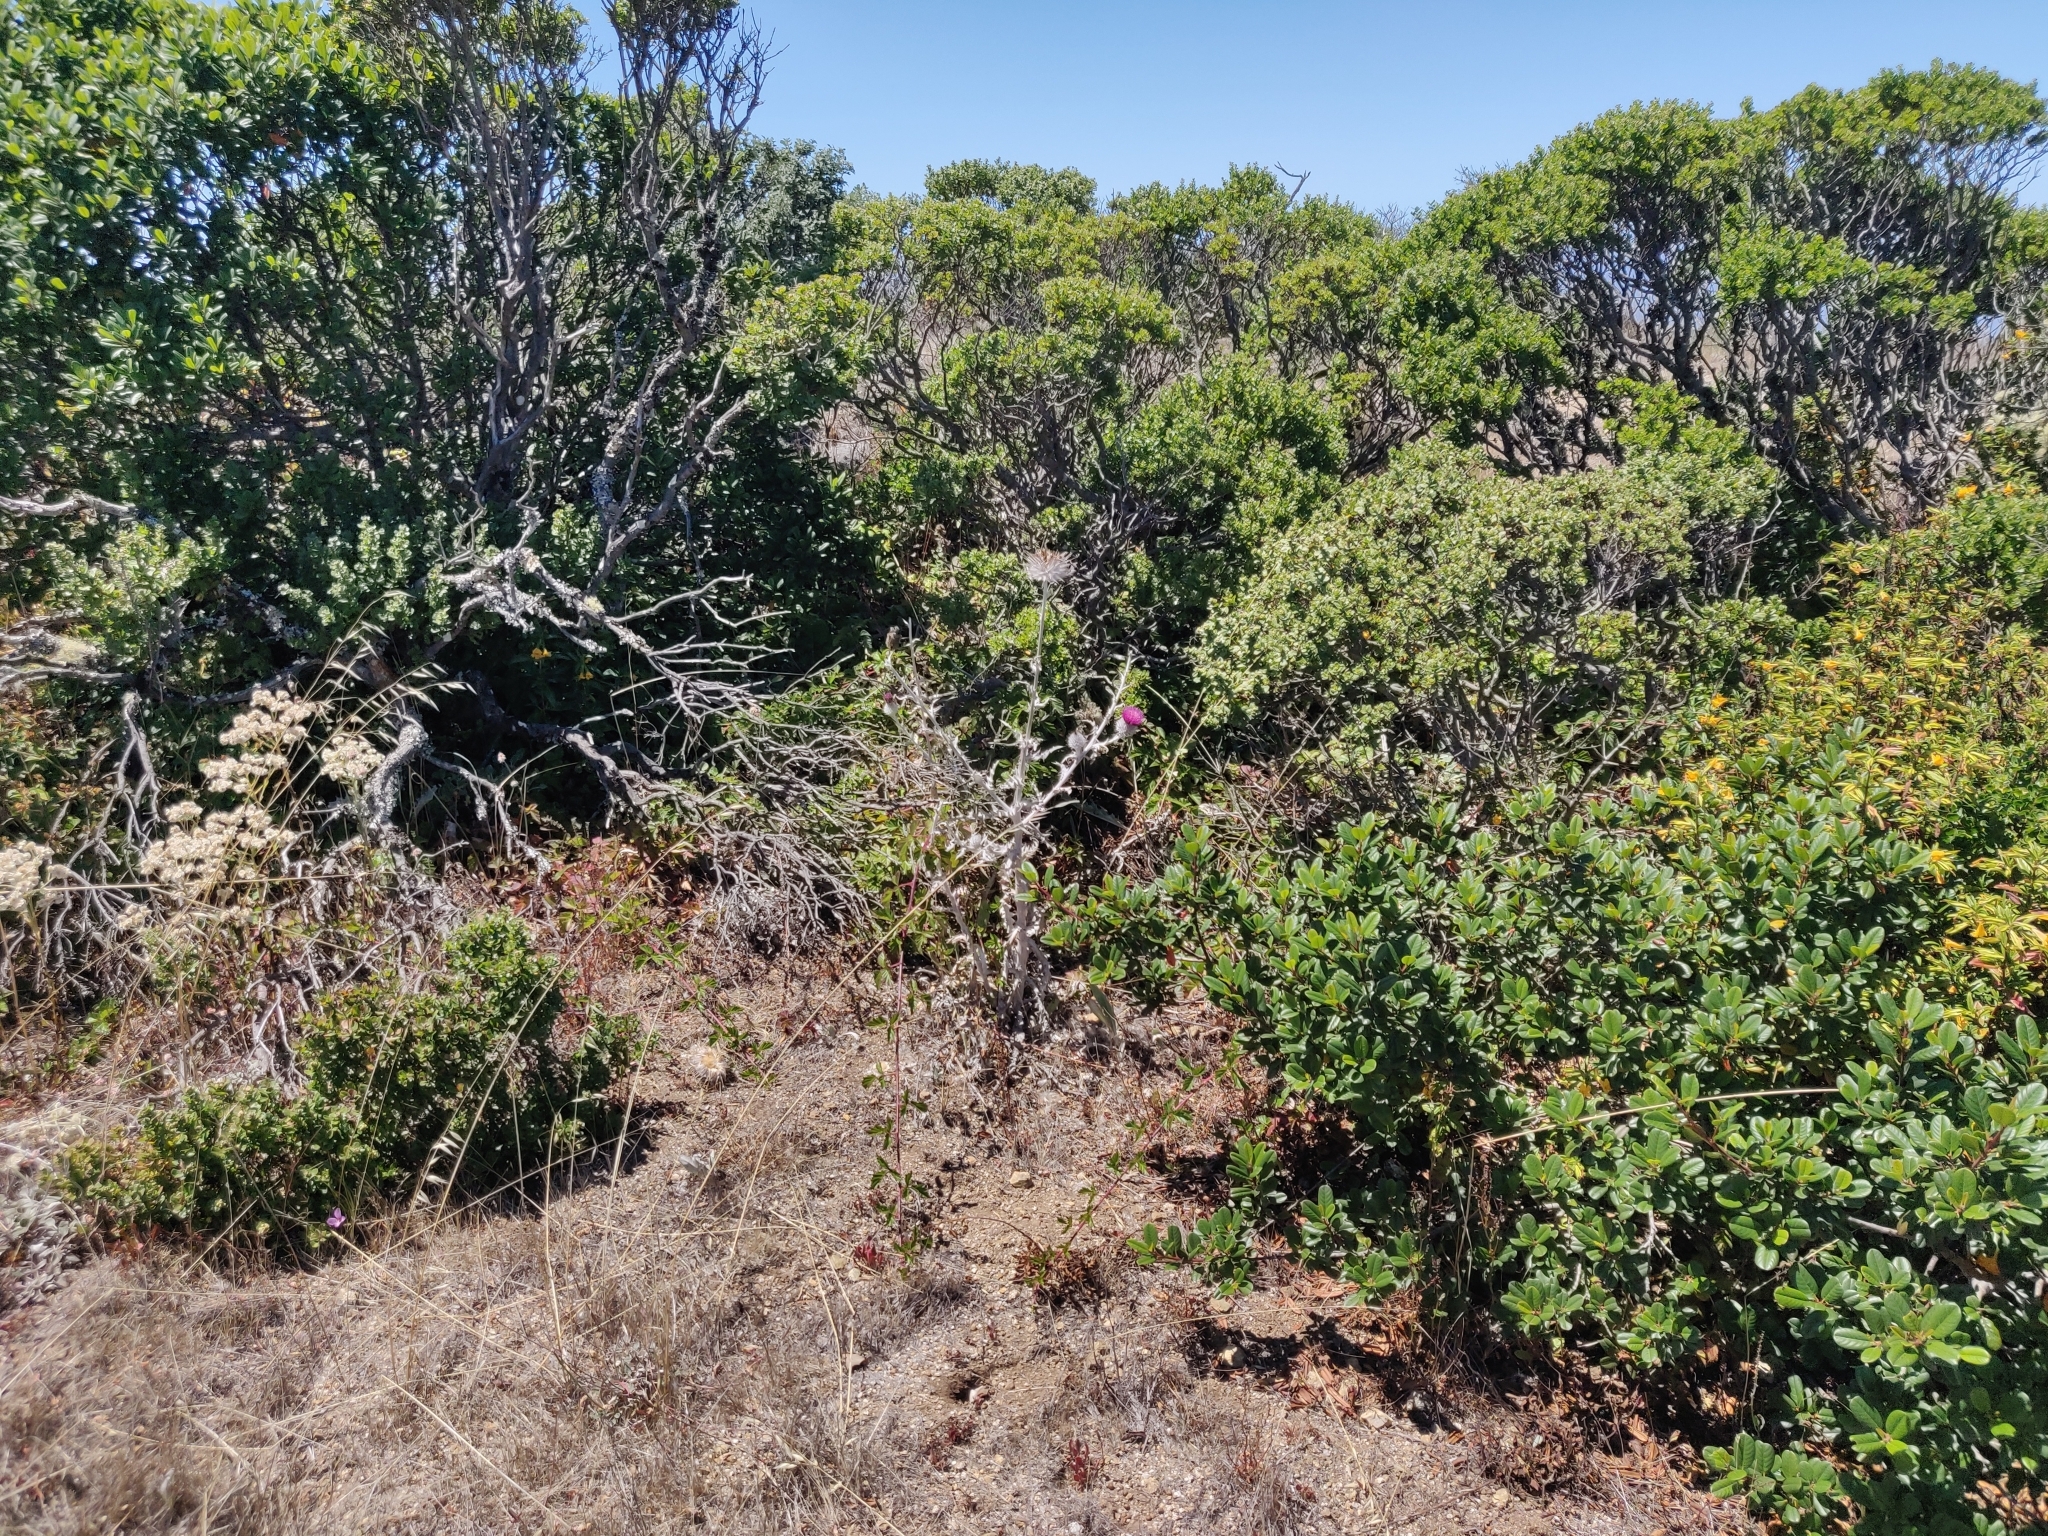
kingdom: Plantae
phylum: Tracheophyta
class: Magnoliopsida
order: Asterales
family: Asteraceae
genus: Cirsium
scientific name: Cirsium occidentale
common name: Western thistle
